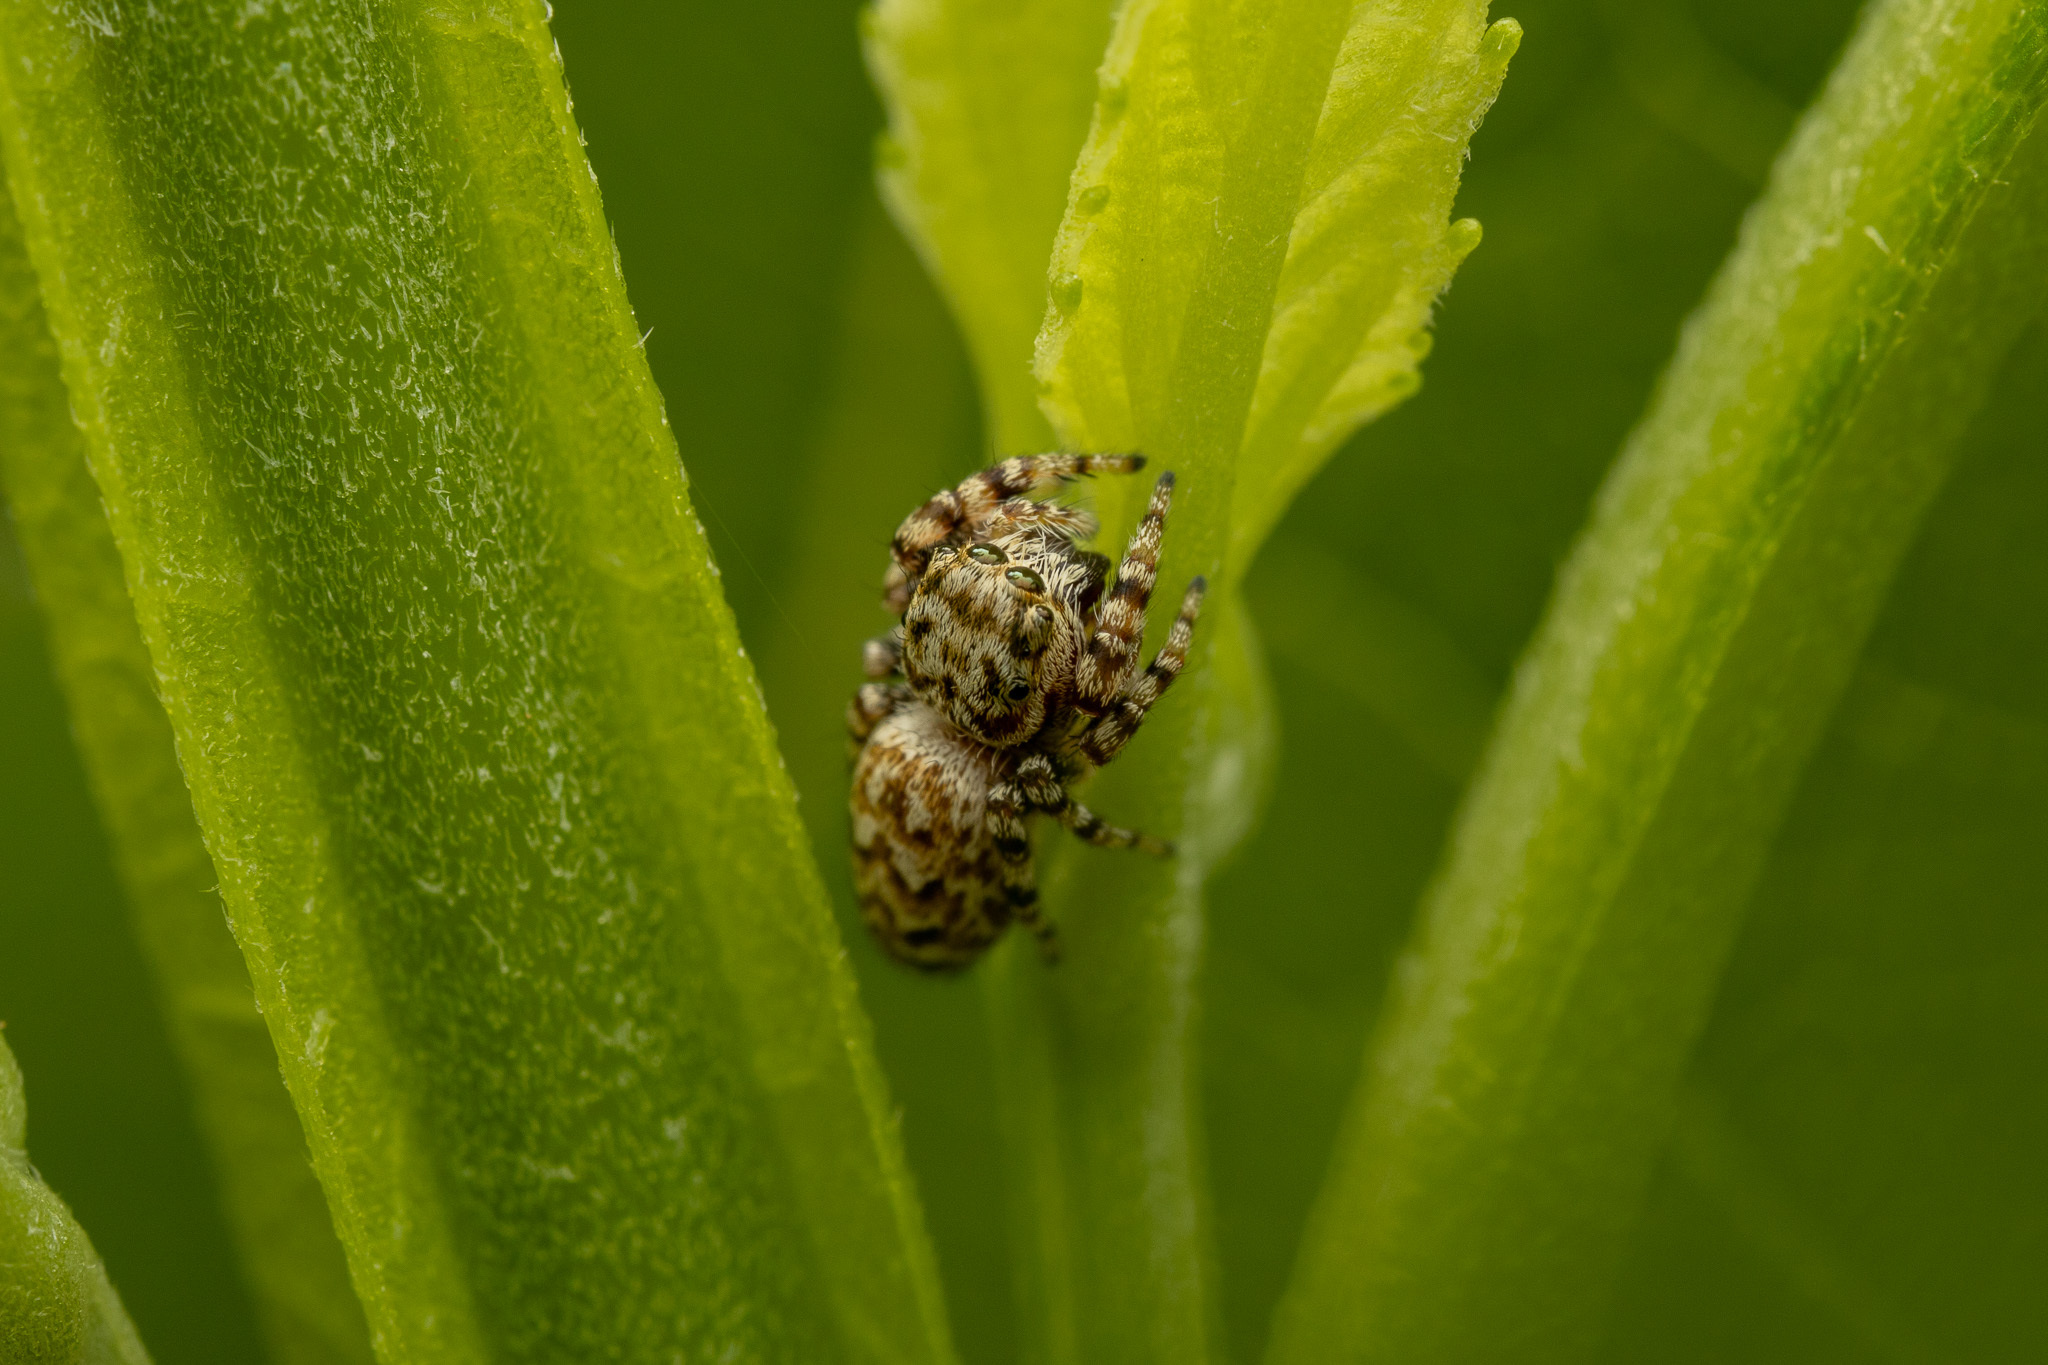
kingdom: Animalia
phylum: Arthropoda
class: Arachnida
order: Araneae
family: Salticidae
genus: Pelegrina
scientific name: Pelegrina galathea
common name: Jumping spiders
